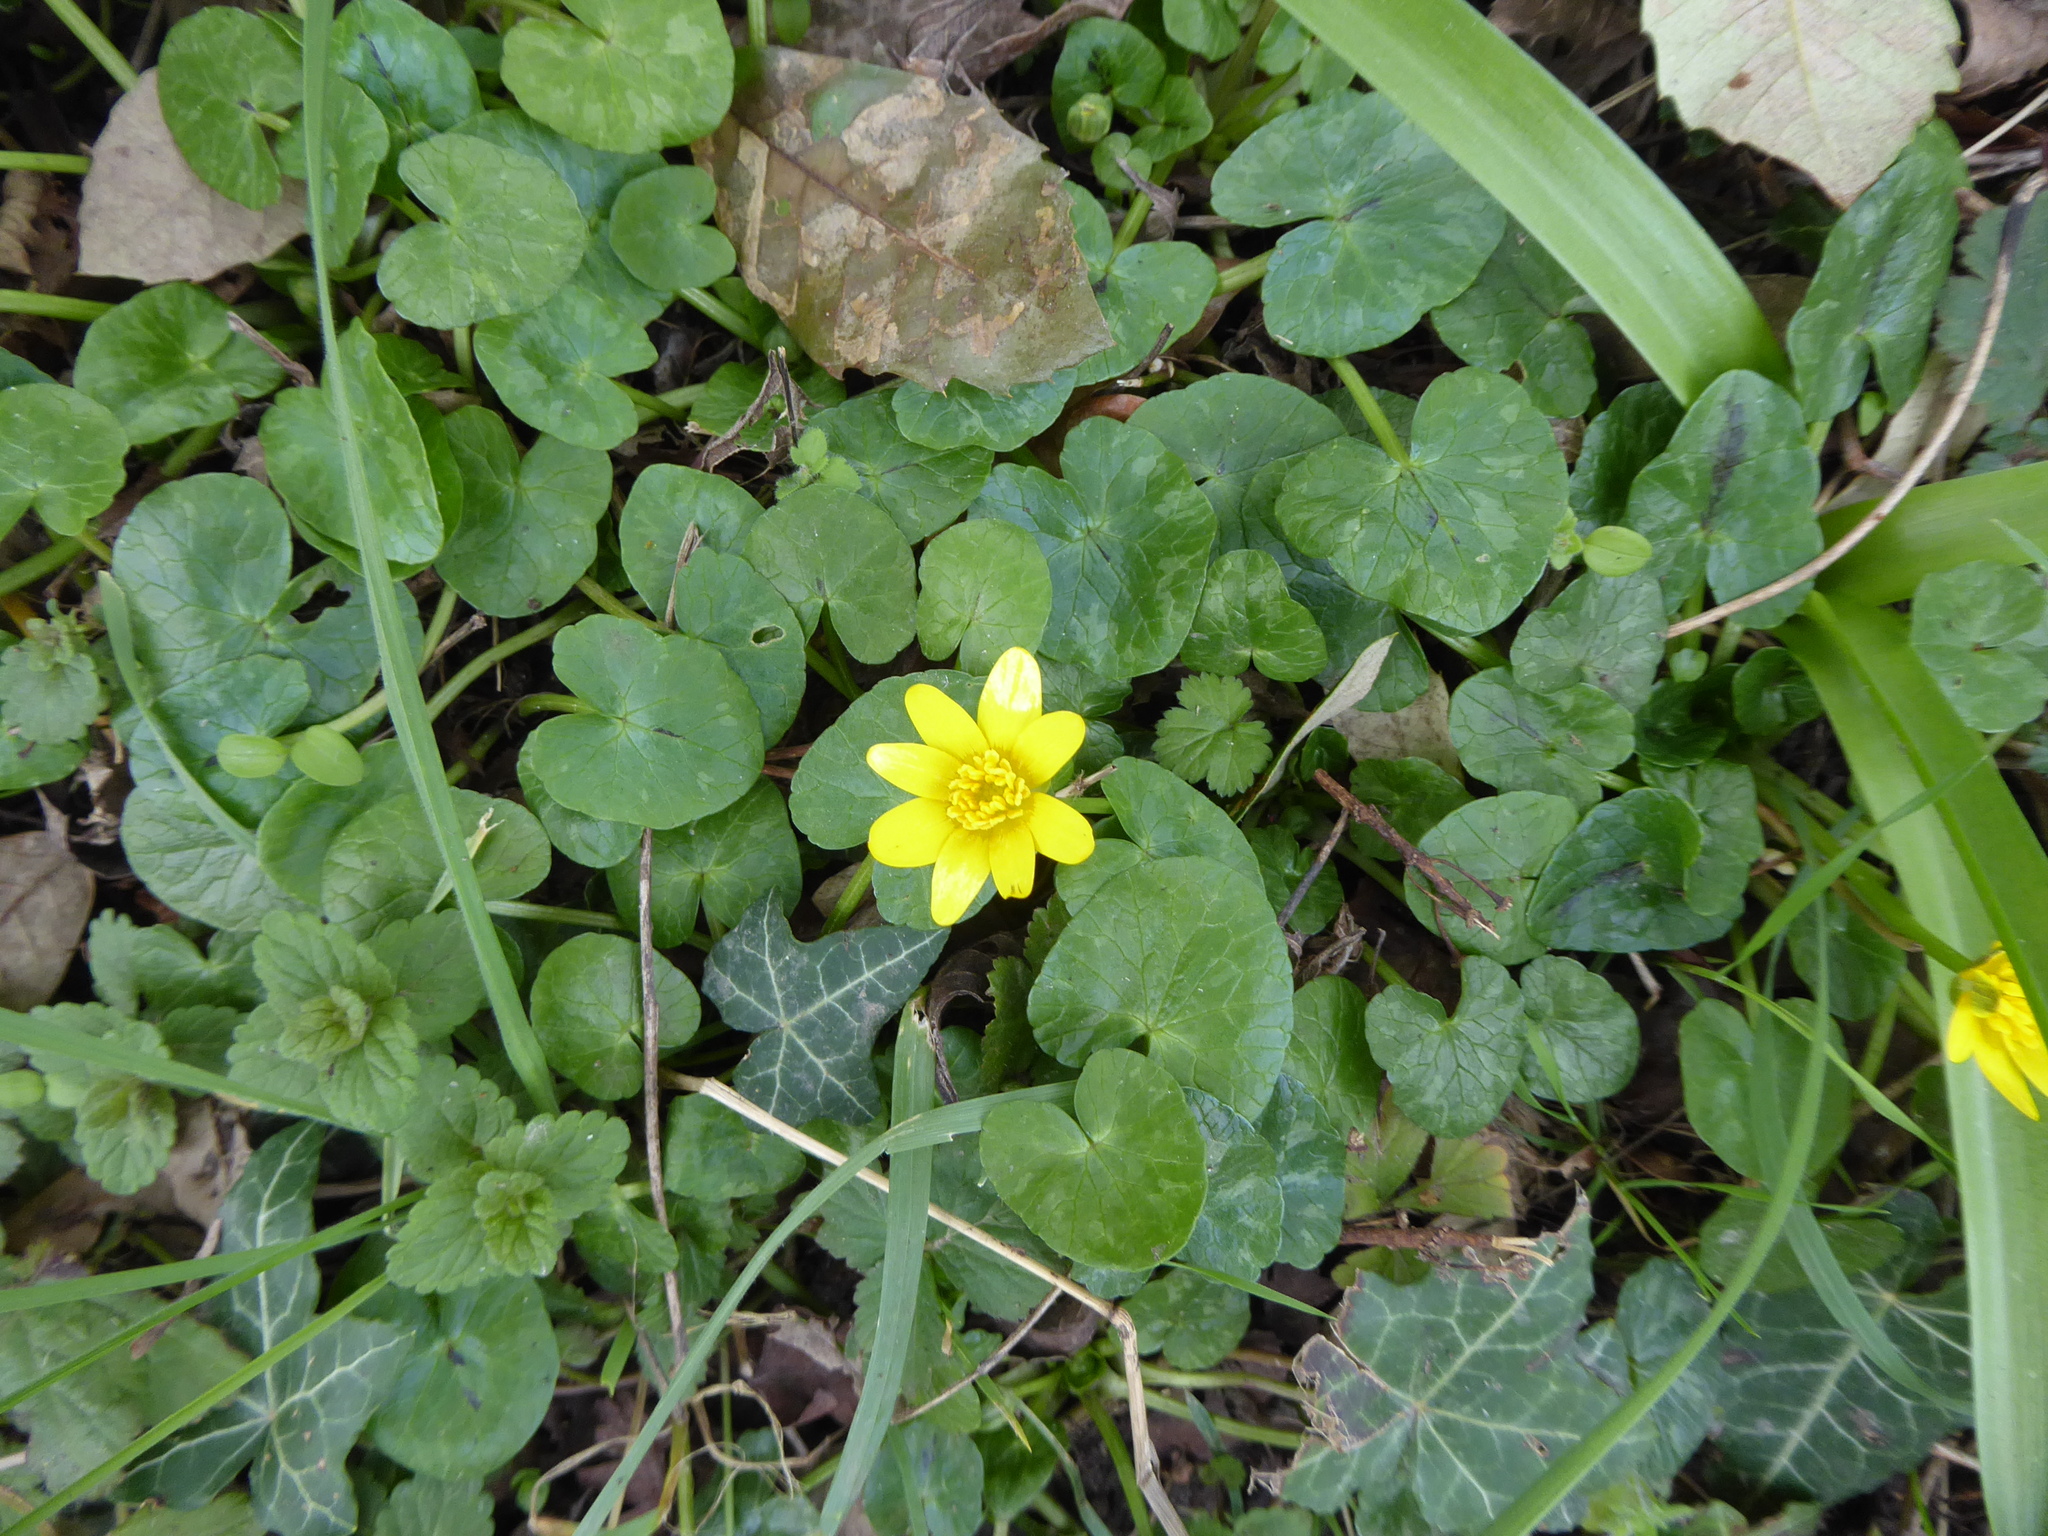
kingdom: Plantae
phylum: Tracheophyta
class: Magnoliopsida
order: Ranunculales
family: Ranunculaceae
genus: Ficaria
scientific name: Ficaria verna
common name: Lesser celandine
